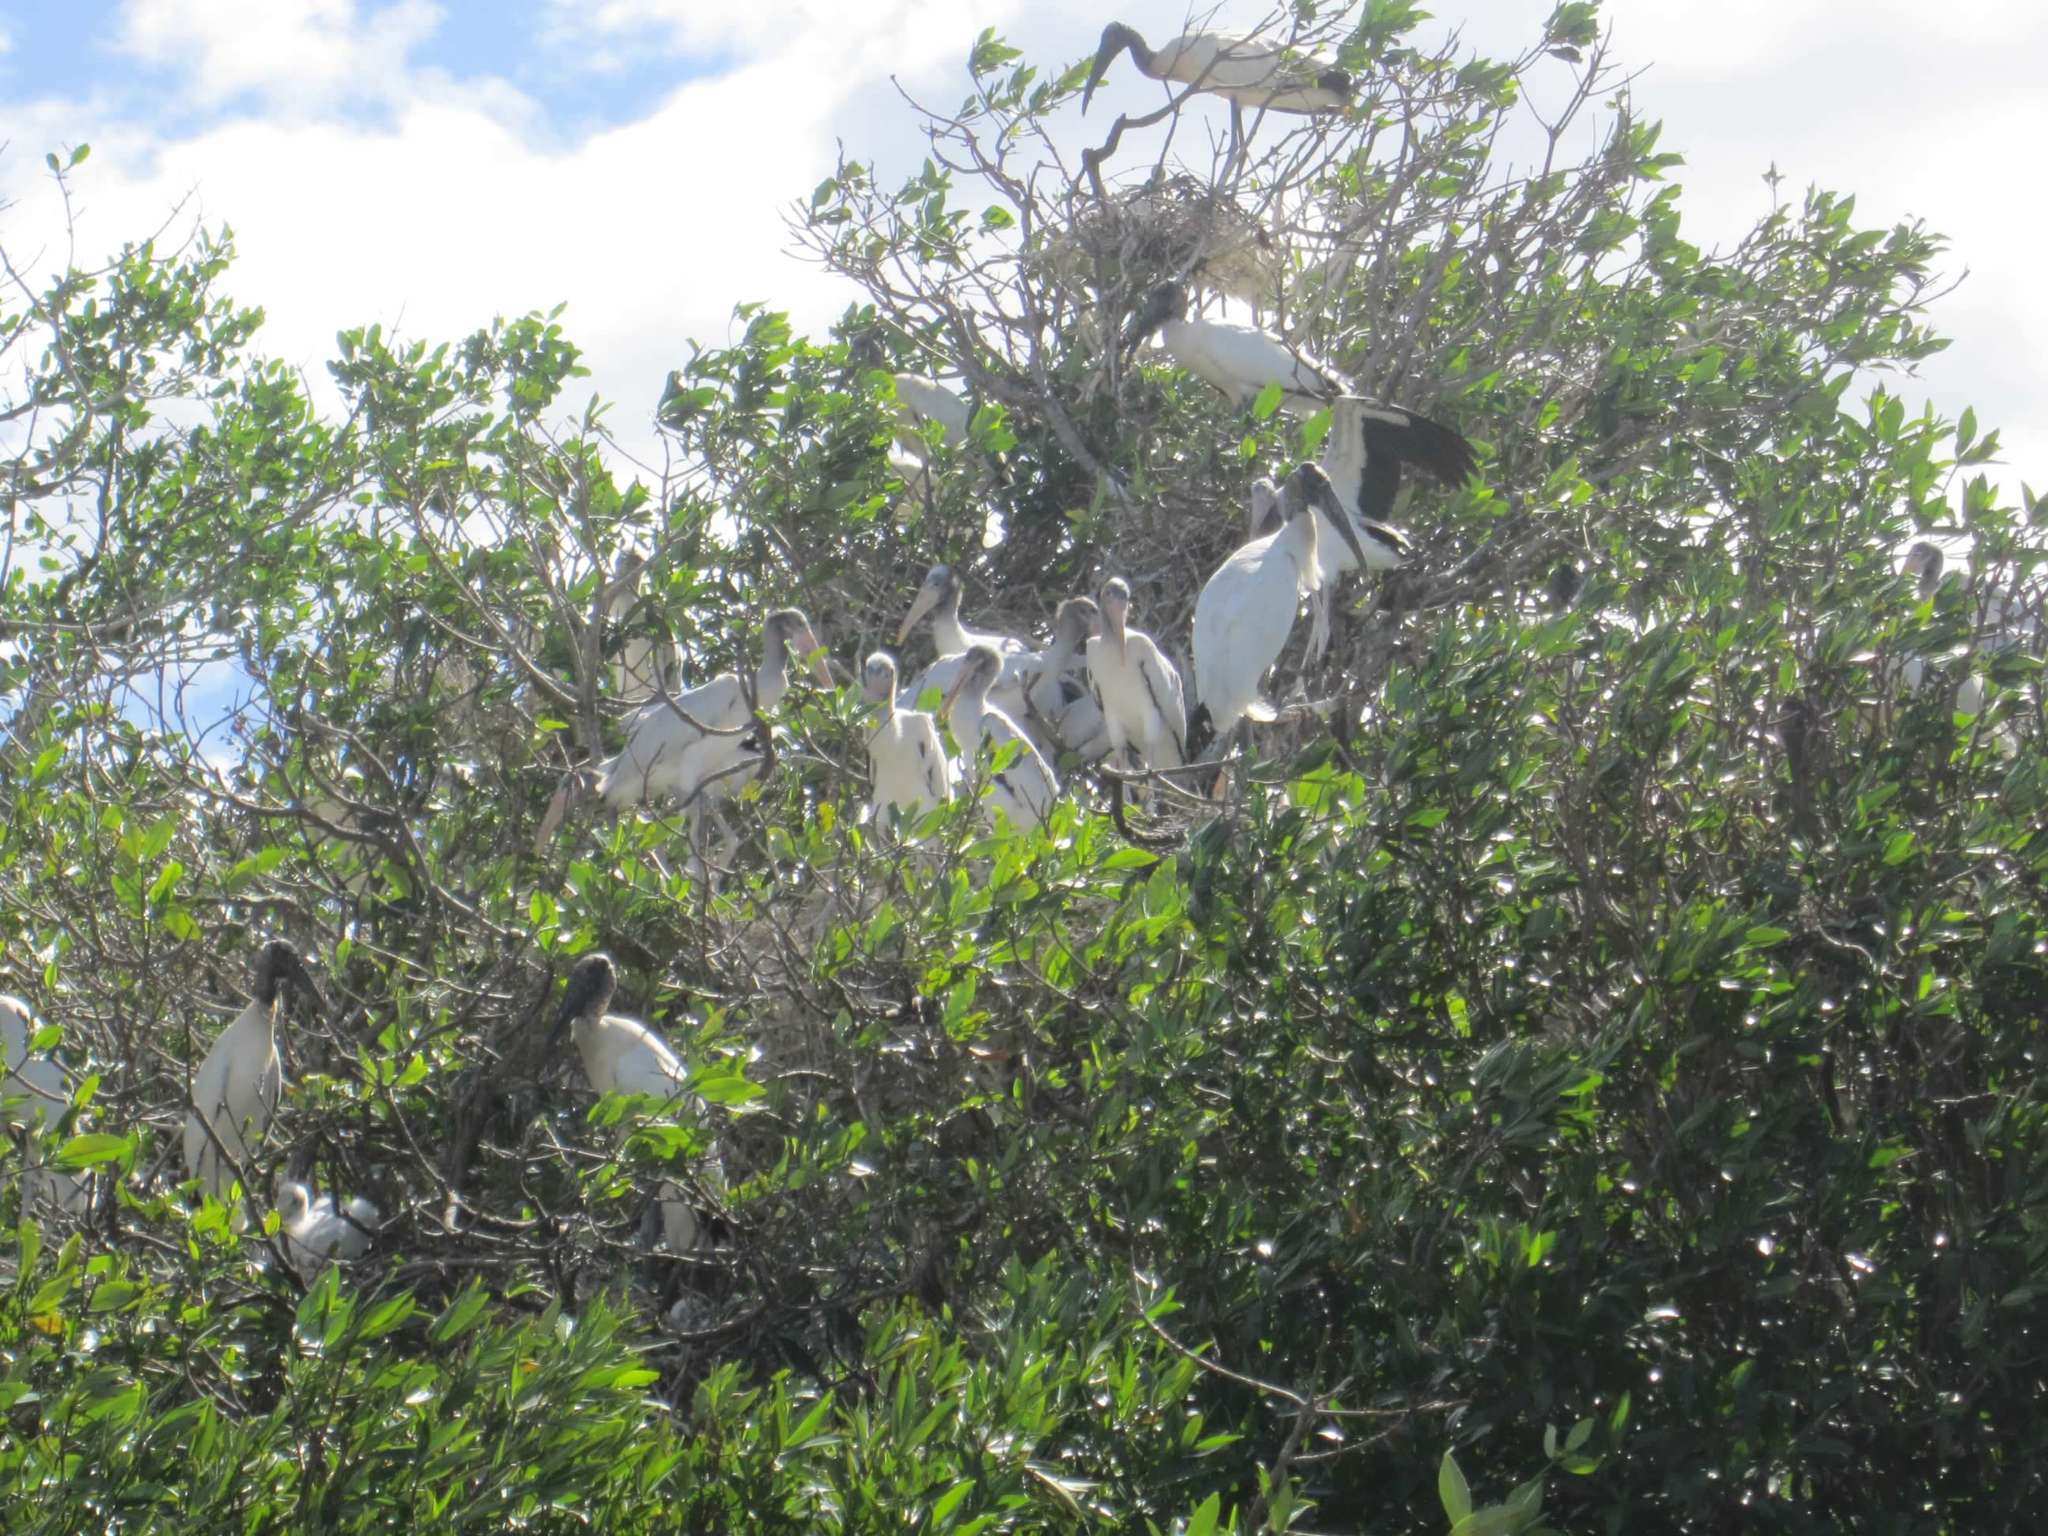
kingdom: Animalia
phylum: Chordata
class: Aves
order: Ciconiiformes
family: Ciconiidae
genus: Mycteria
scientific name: Mycteria americana
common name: Wood stork
